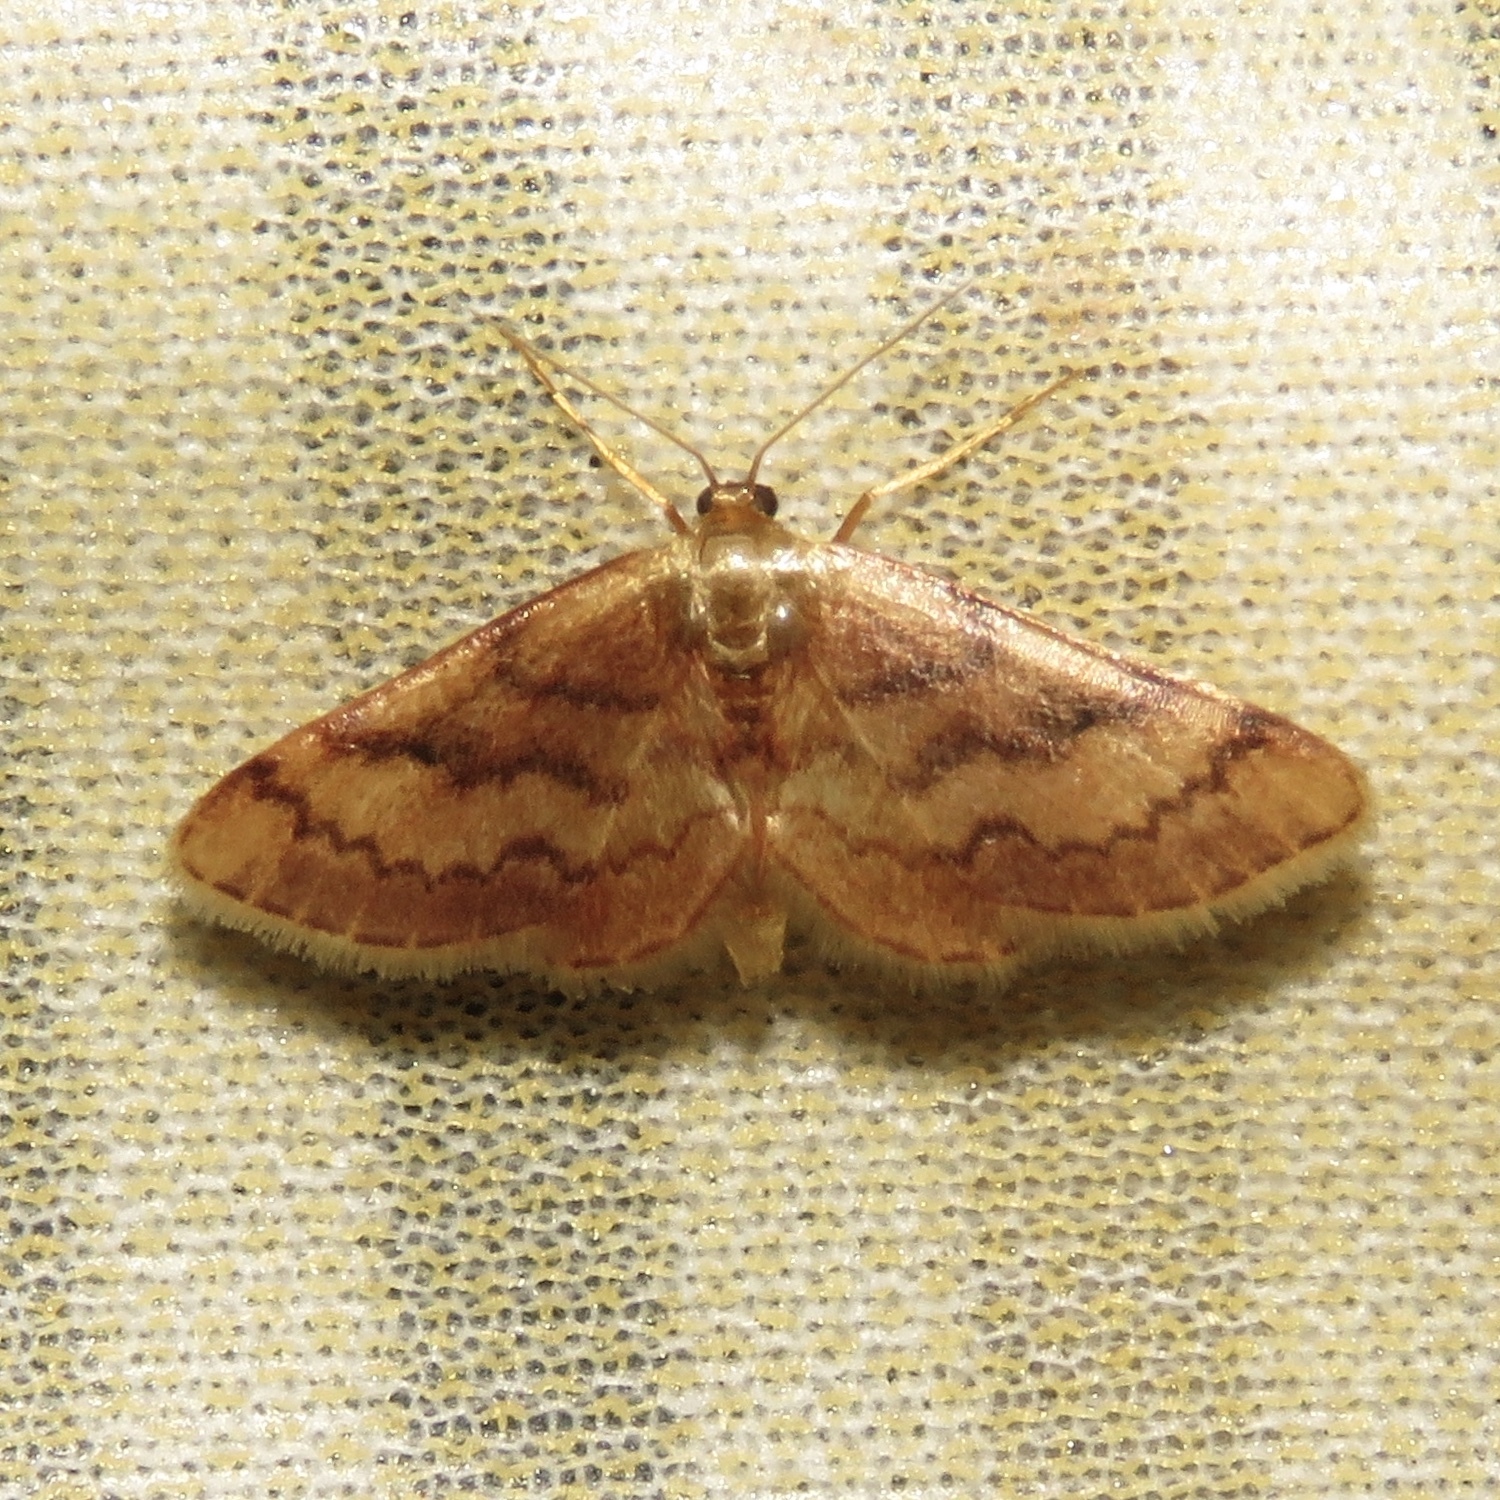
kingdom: Animalia
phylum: Arthropoda
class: Insecta
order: Lepidoptera
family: Geometridae
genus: Idaea
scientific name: Idaea demissaria
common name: Red-bordered wave
